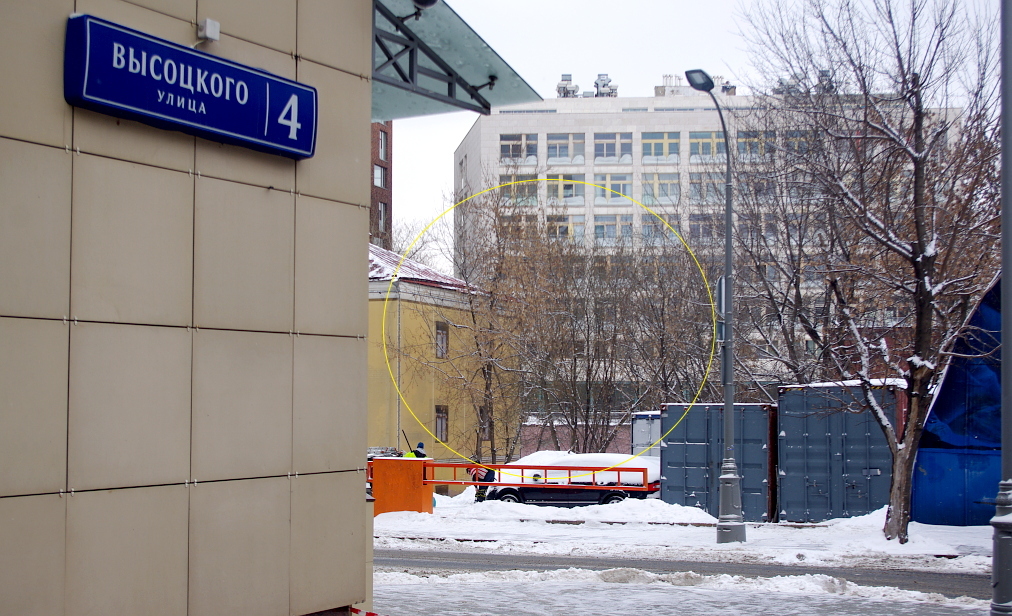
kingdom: Plantae
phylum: Tracheophyta
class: Magnoliopsida
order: Sapindales
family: Sapindaceae
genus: Acer
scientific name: Acer negundo
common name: Ashleaf maple
